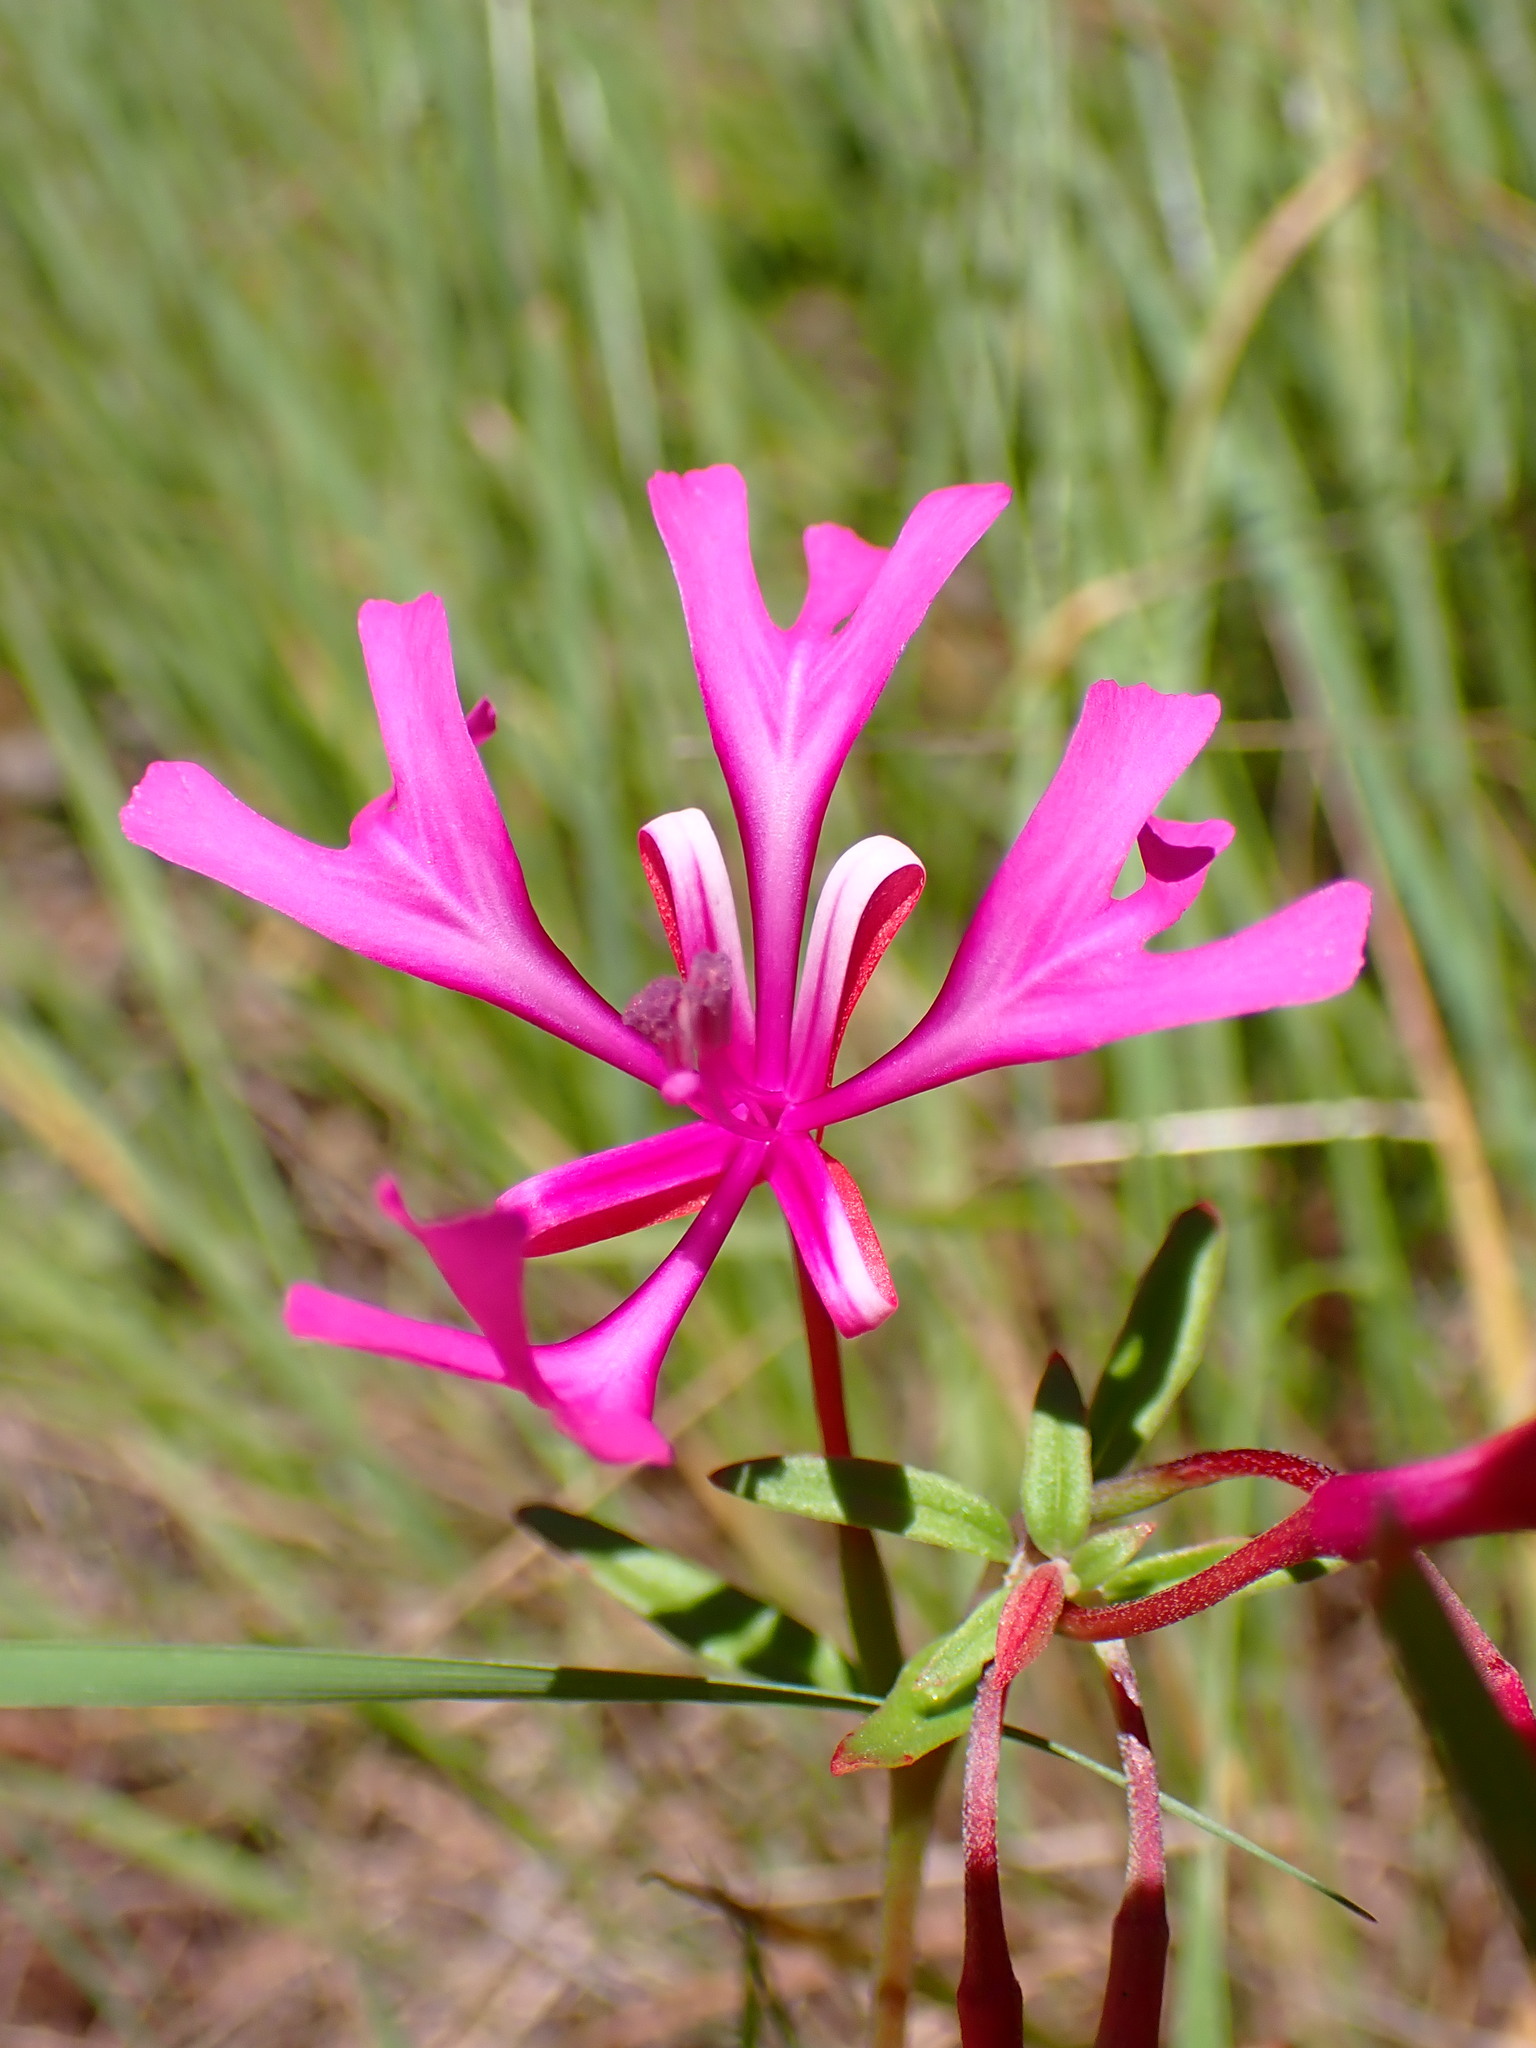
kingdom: Plantae
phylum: Tracheophyta
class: Magnoliopsida
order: Myrtales
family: Onagraceae
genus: Clarkia
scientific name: Clarkia concinna
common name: Red-ribbons
